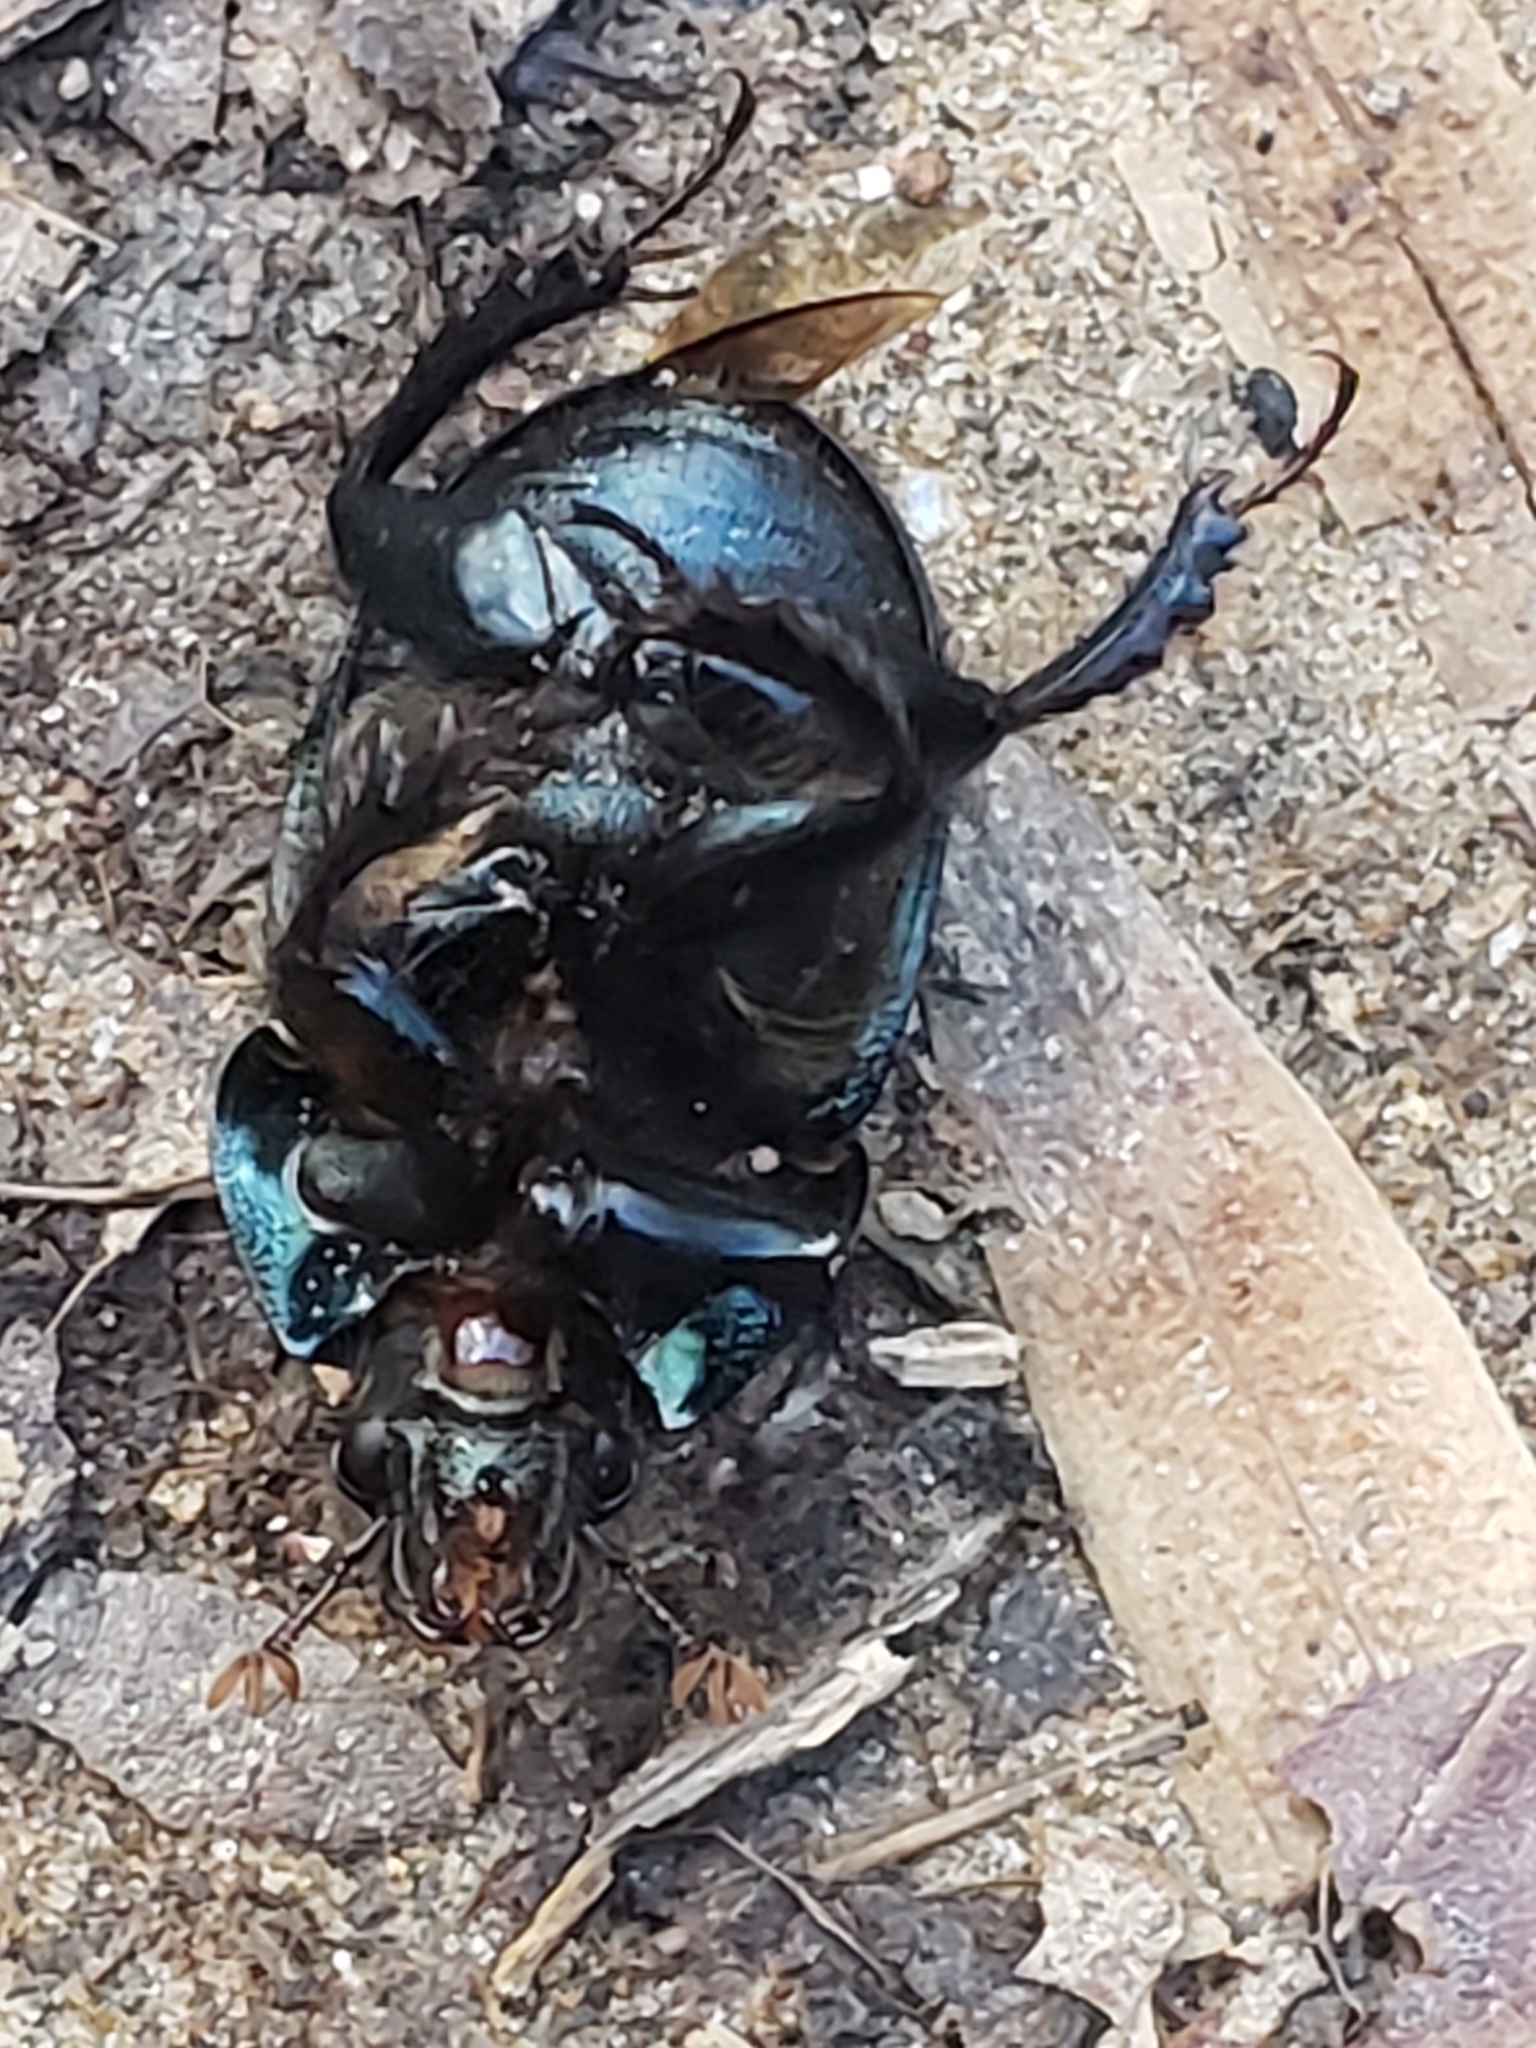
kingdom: Animalia
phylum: Arthropoda
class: Insecta
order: Coleoptera
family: Geotrupidae
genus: Cnemotrupes
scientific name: Cnemotrupes semiopacus
